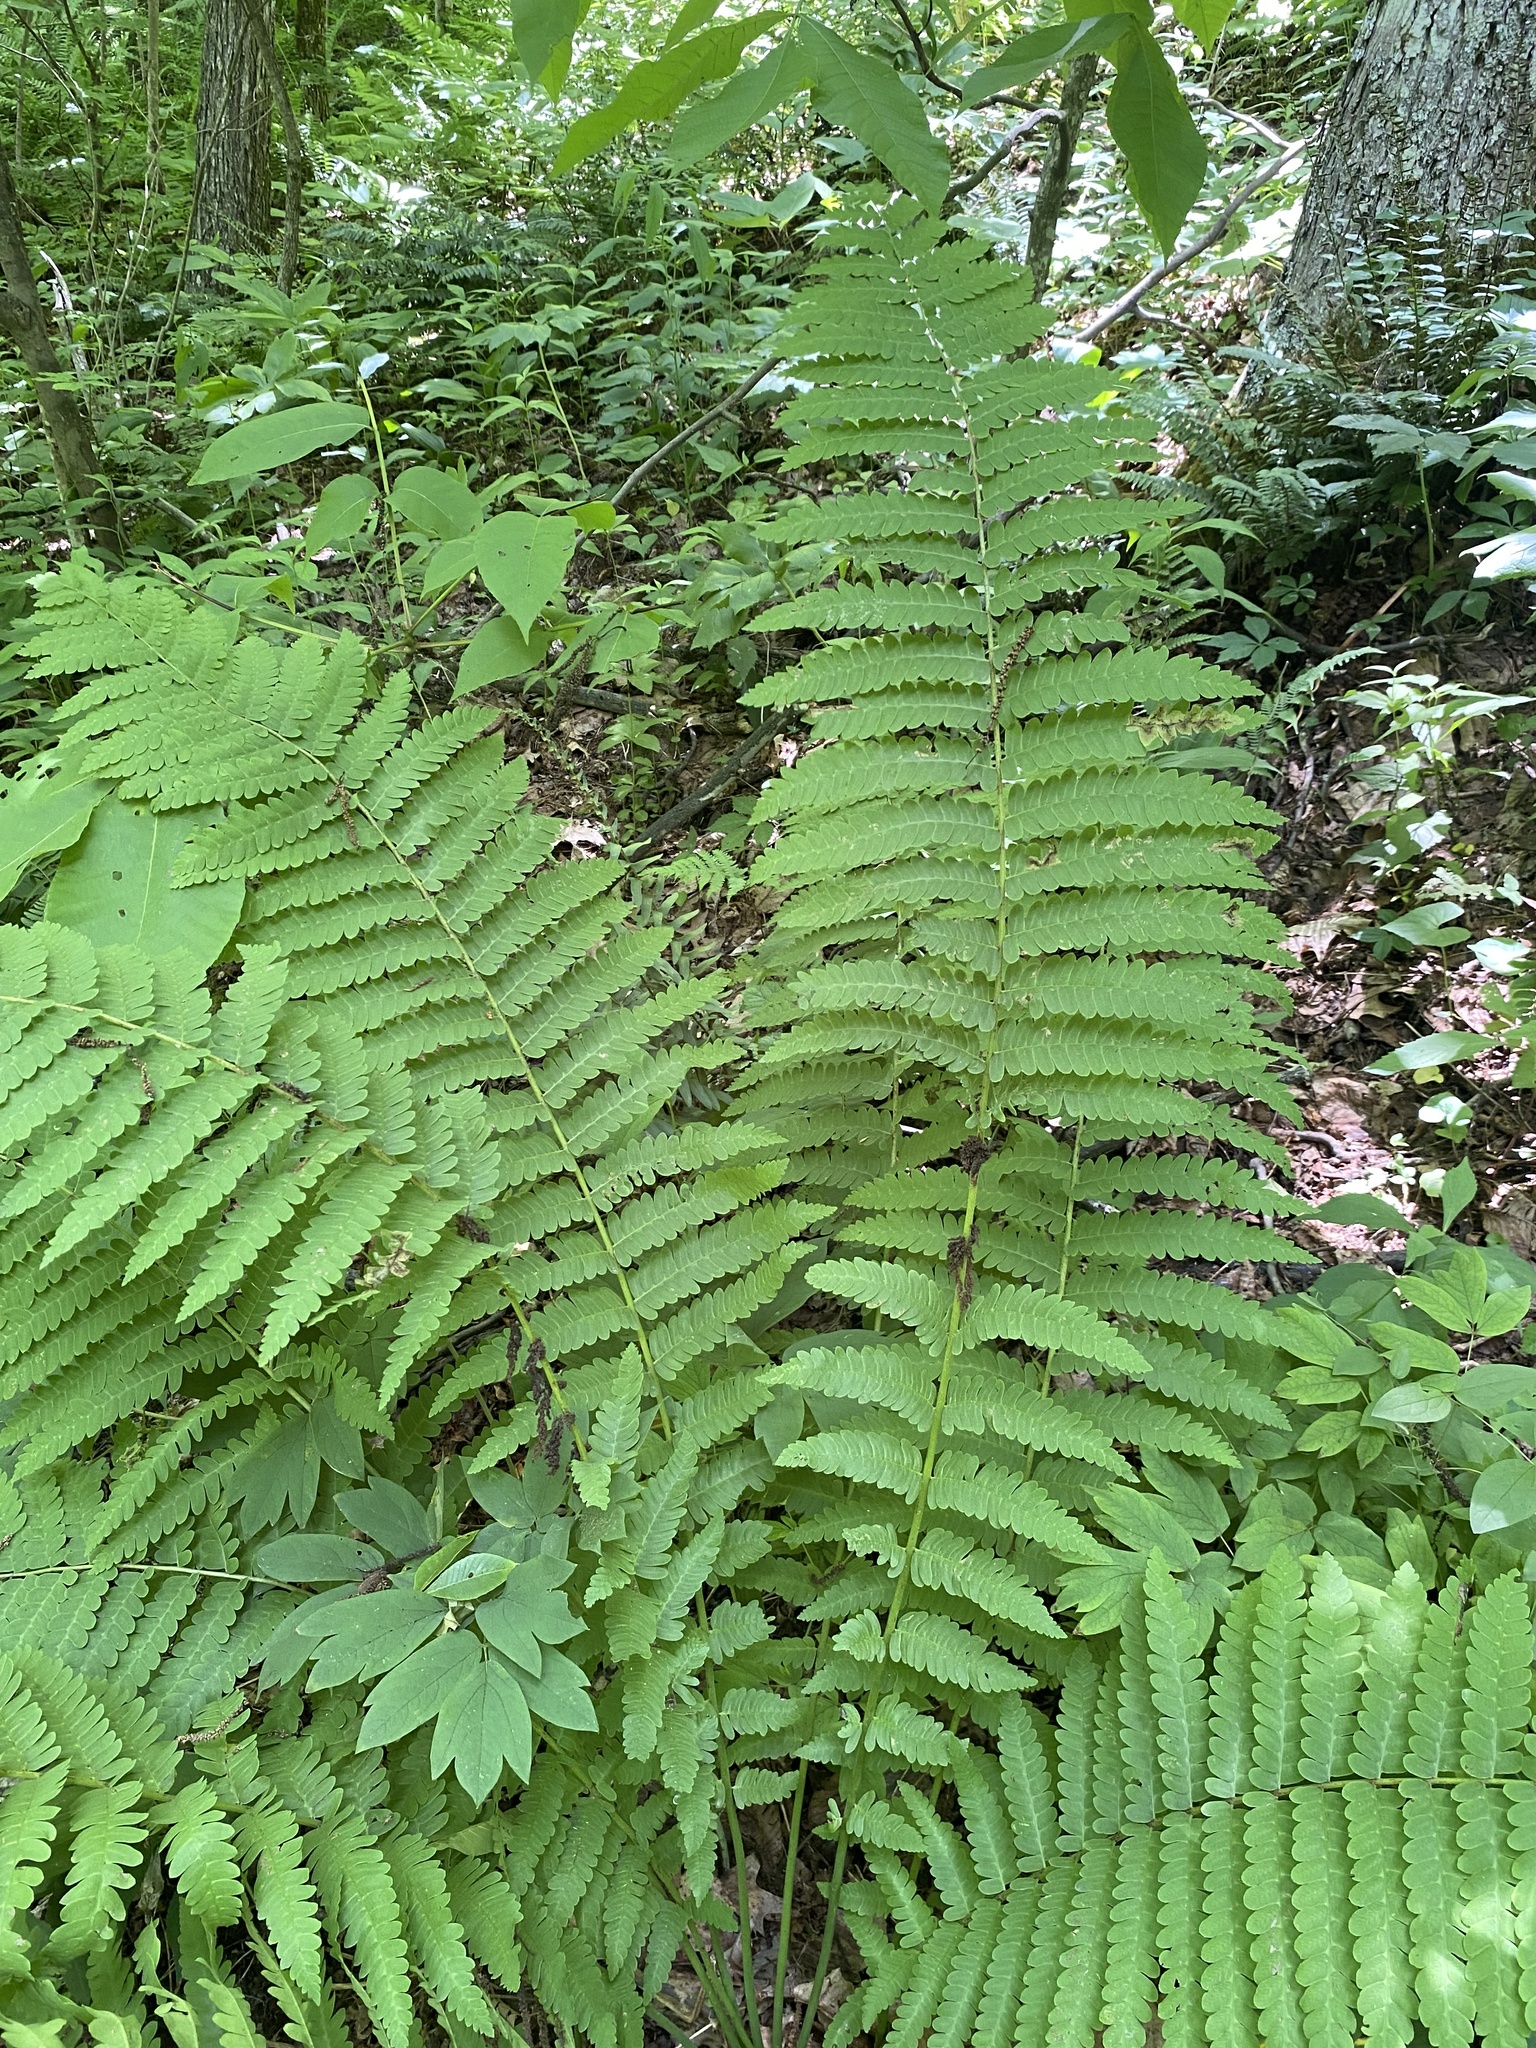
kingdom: Plantae
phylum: Tracheophyta
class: Polypodiopsida
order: Osmundales
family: Osmundaceae
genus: Claytosmunda
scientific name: Claytosmunda claytoniana
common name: Clayton's fern
